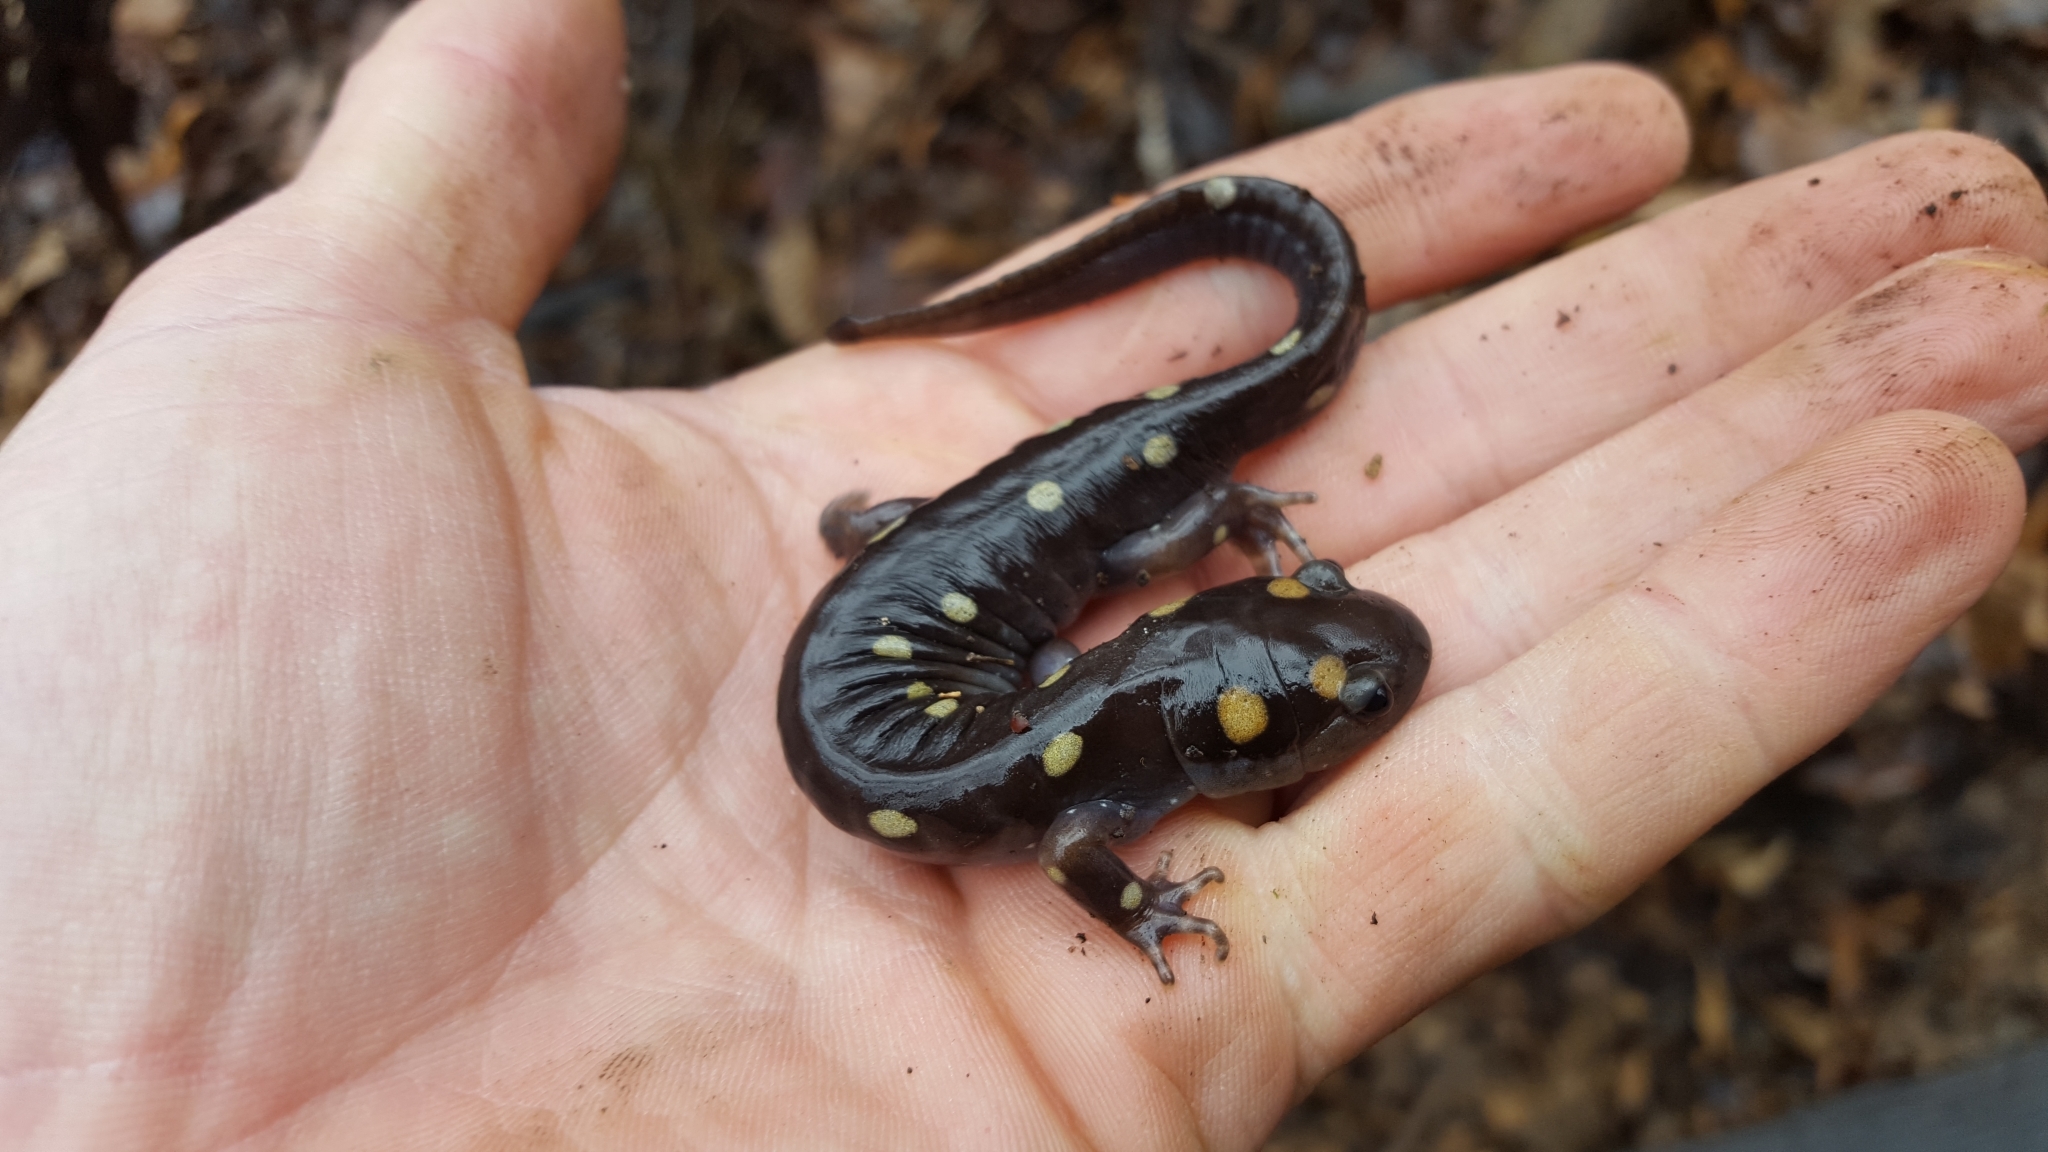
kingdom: Animalia
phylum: Chordata
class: Amphibia
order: Caudata
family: Ambystomatidae
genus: Ambystoma
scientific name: Ambystoma maculatum
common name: Spotted salamander
